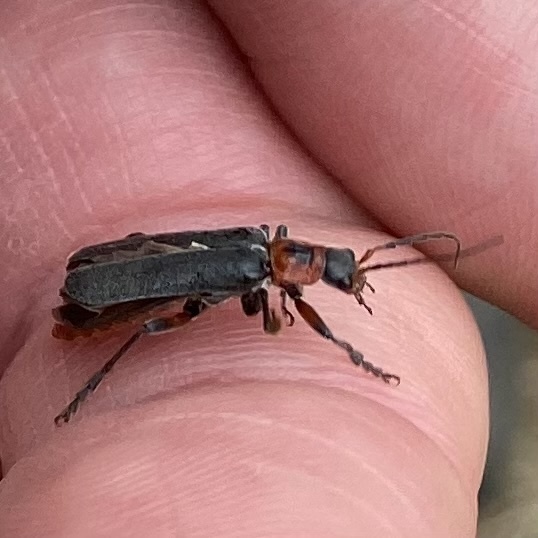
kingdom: Animalia
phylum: Arthropoda
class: Insecta
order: Coleoptera
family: Cantharidae
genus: Cantharis
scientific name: Cantharis rustica
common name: Soldier beetle
